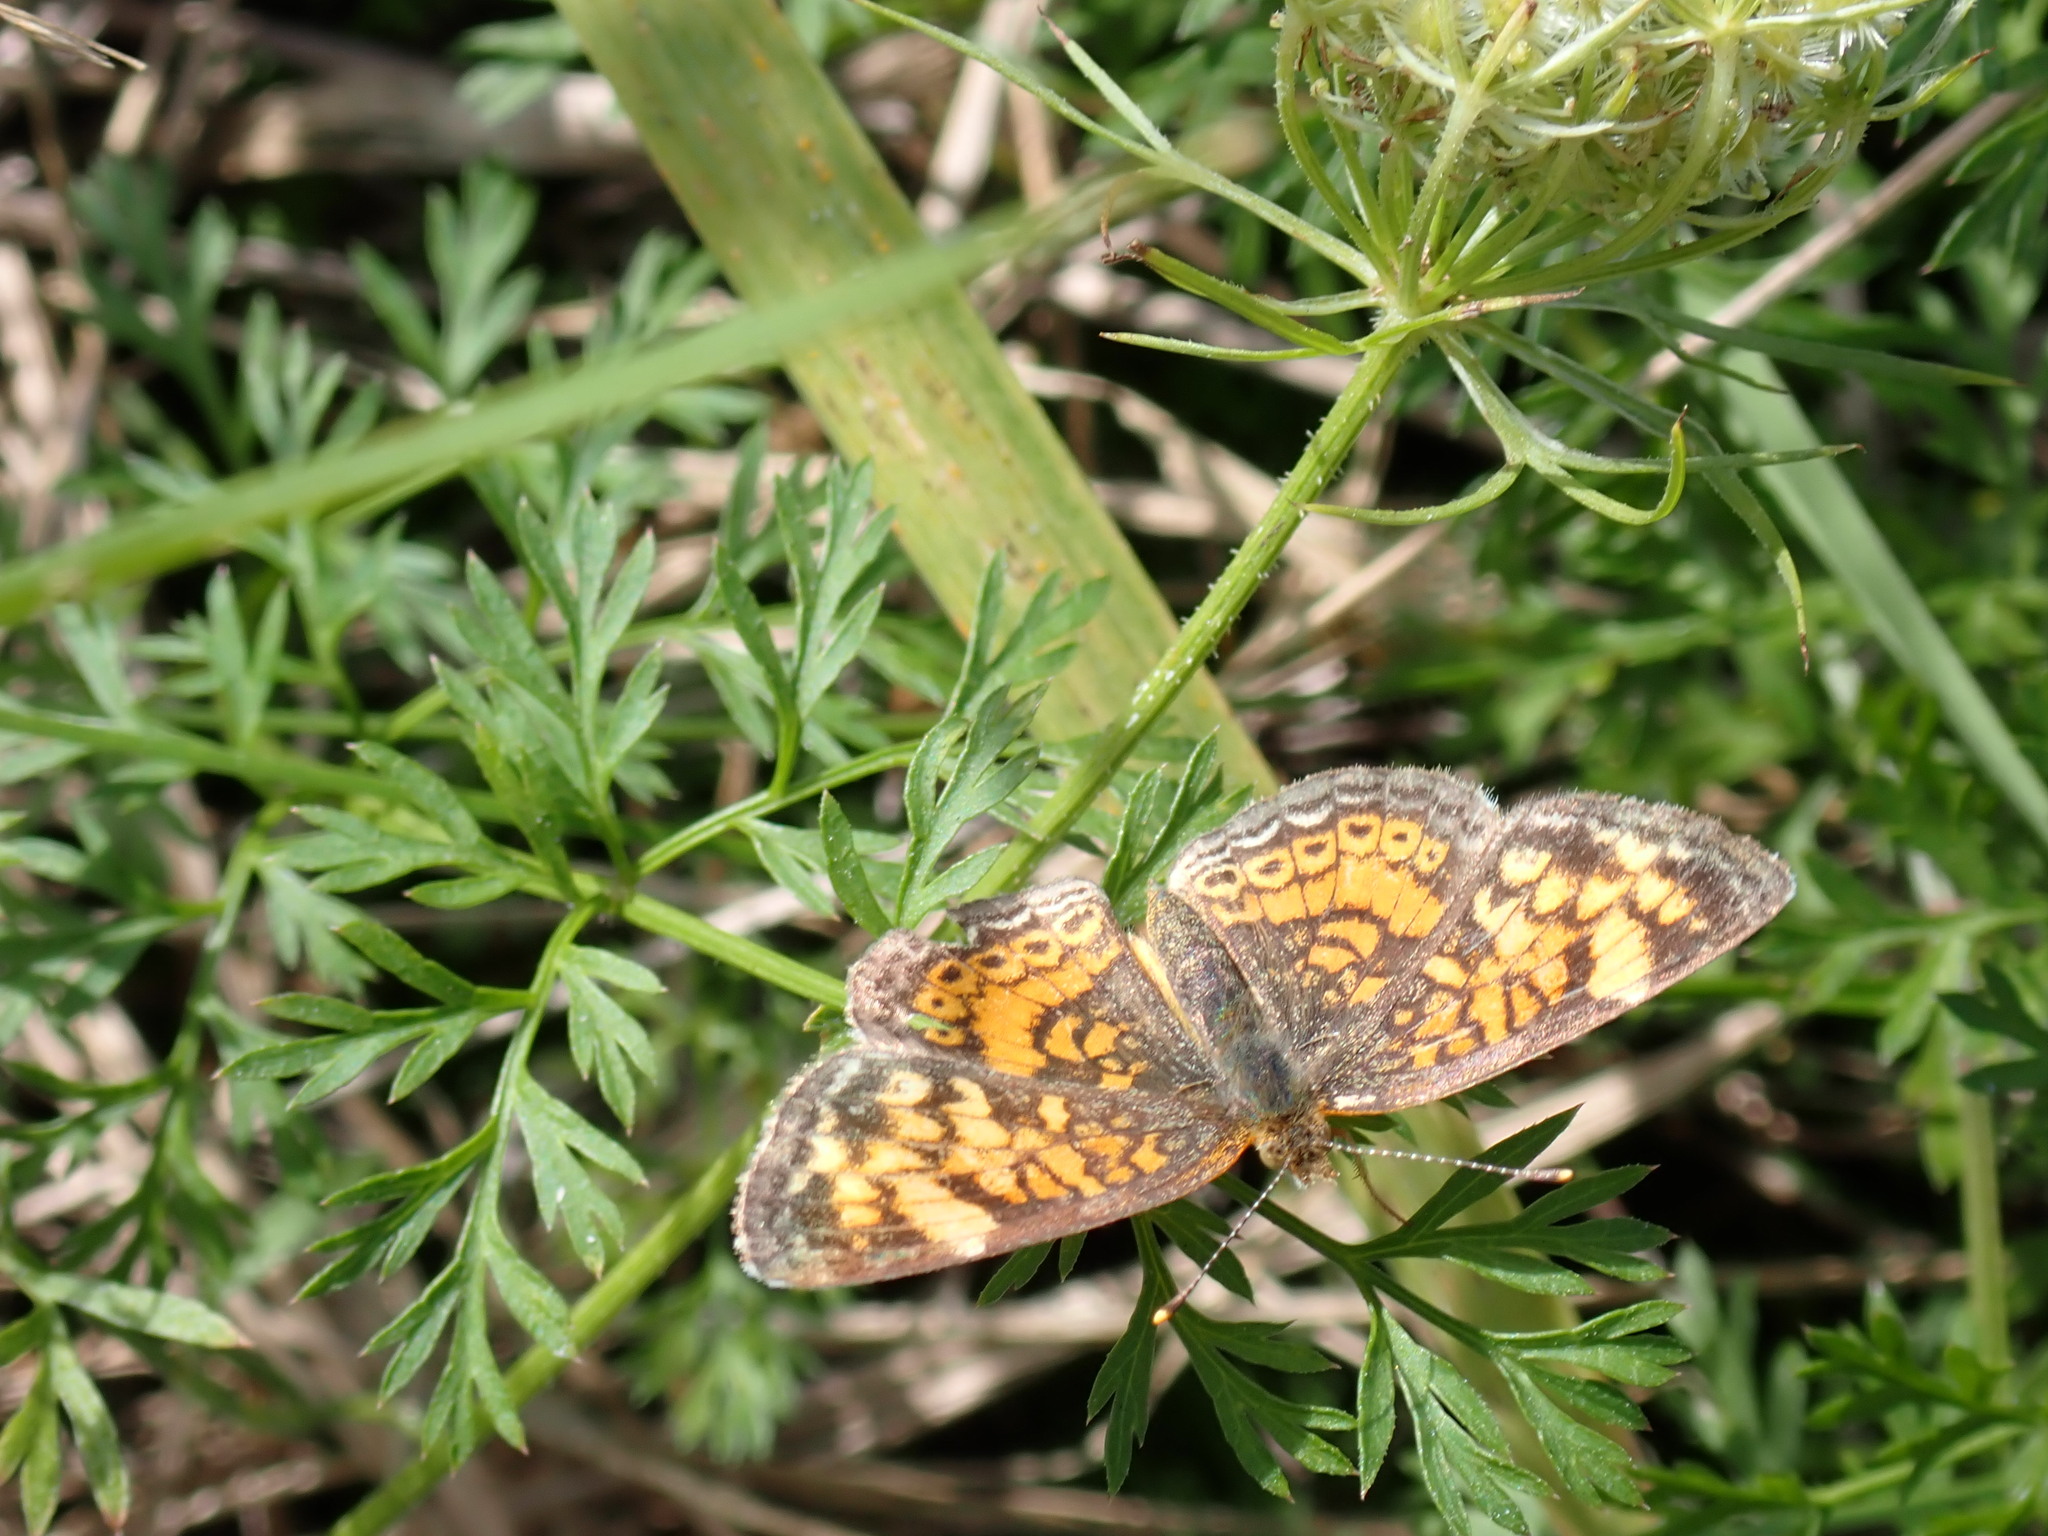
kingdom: Animalia
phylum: Arthropoda
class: Insecta
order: Lepidoptera
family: Nymphalidae
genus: Phyciodes
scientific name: Phyciodes tharos
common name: Pearl crescent
